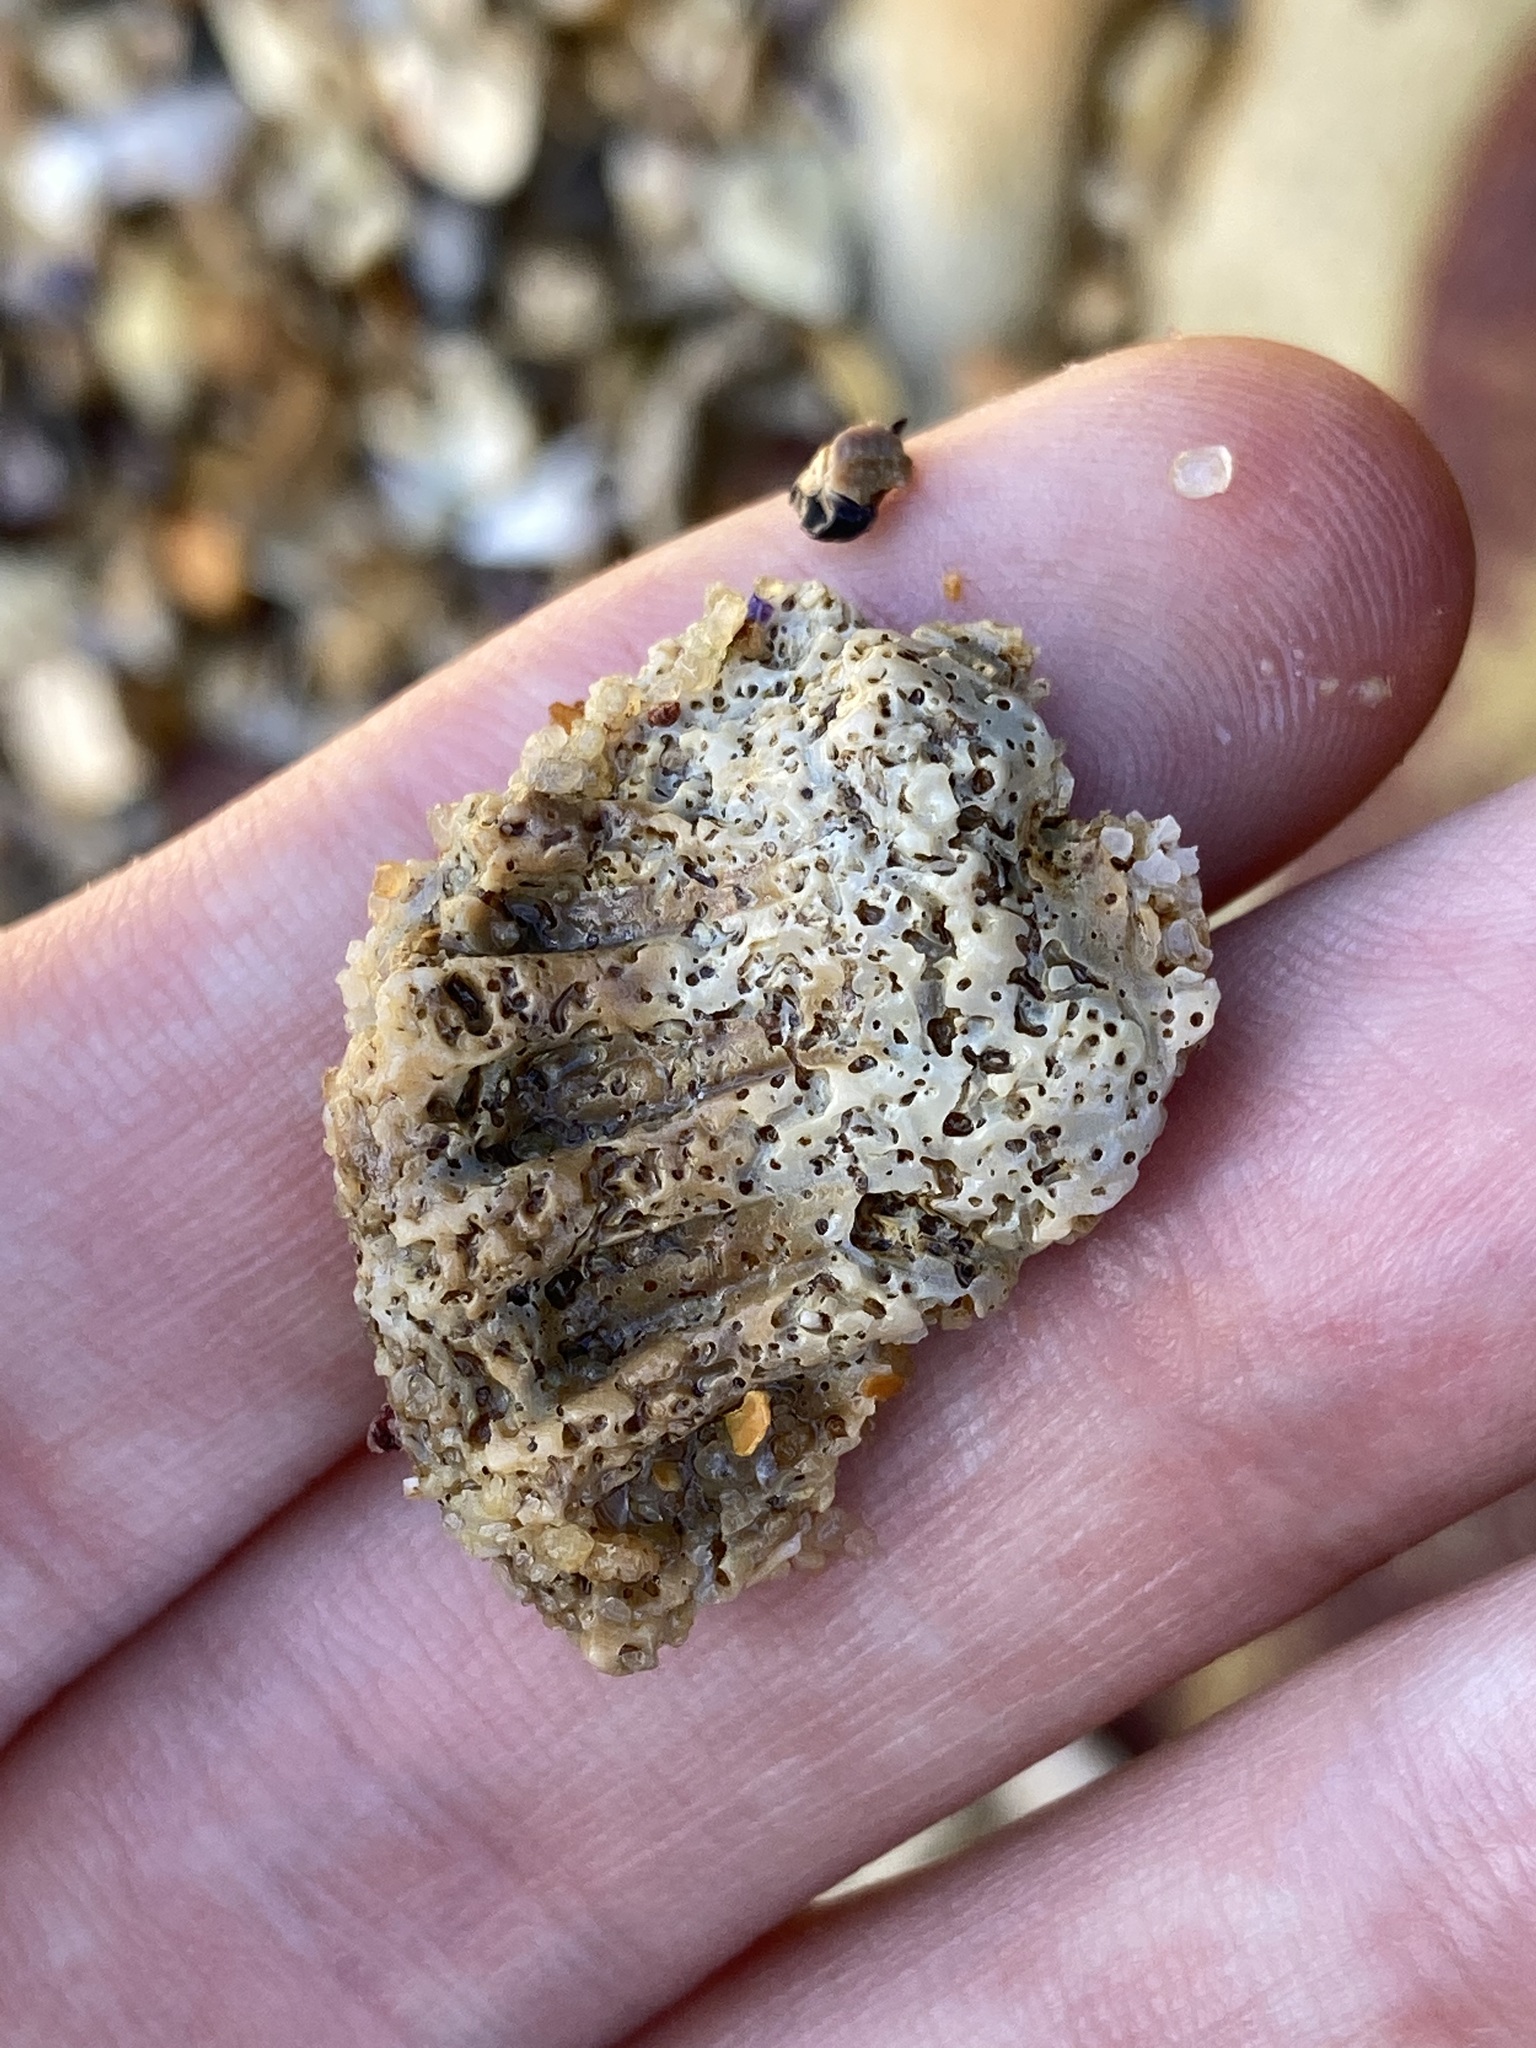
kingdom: Animalia
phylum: Mollusca
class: Gastropoda
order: Littorinimorpha
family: Cymatiidae
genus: Cabestana
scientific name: Cabestana spengleri
